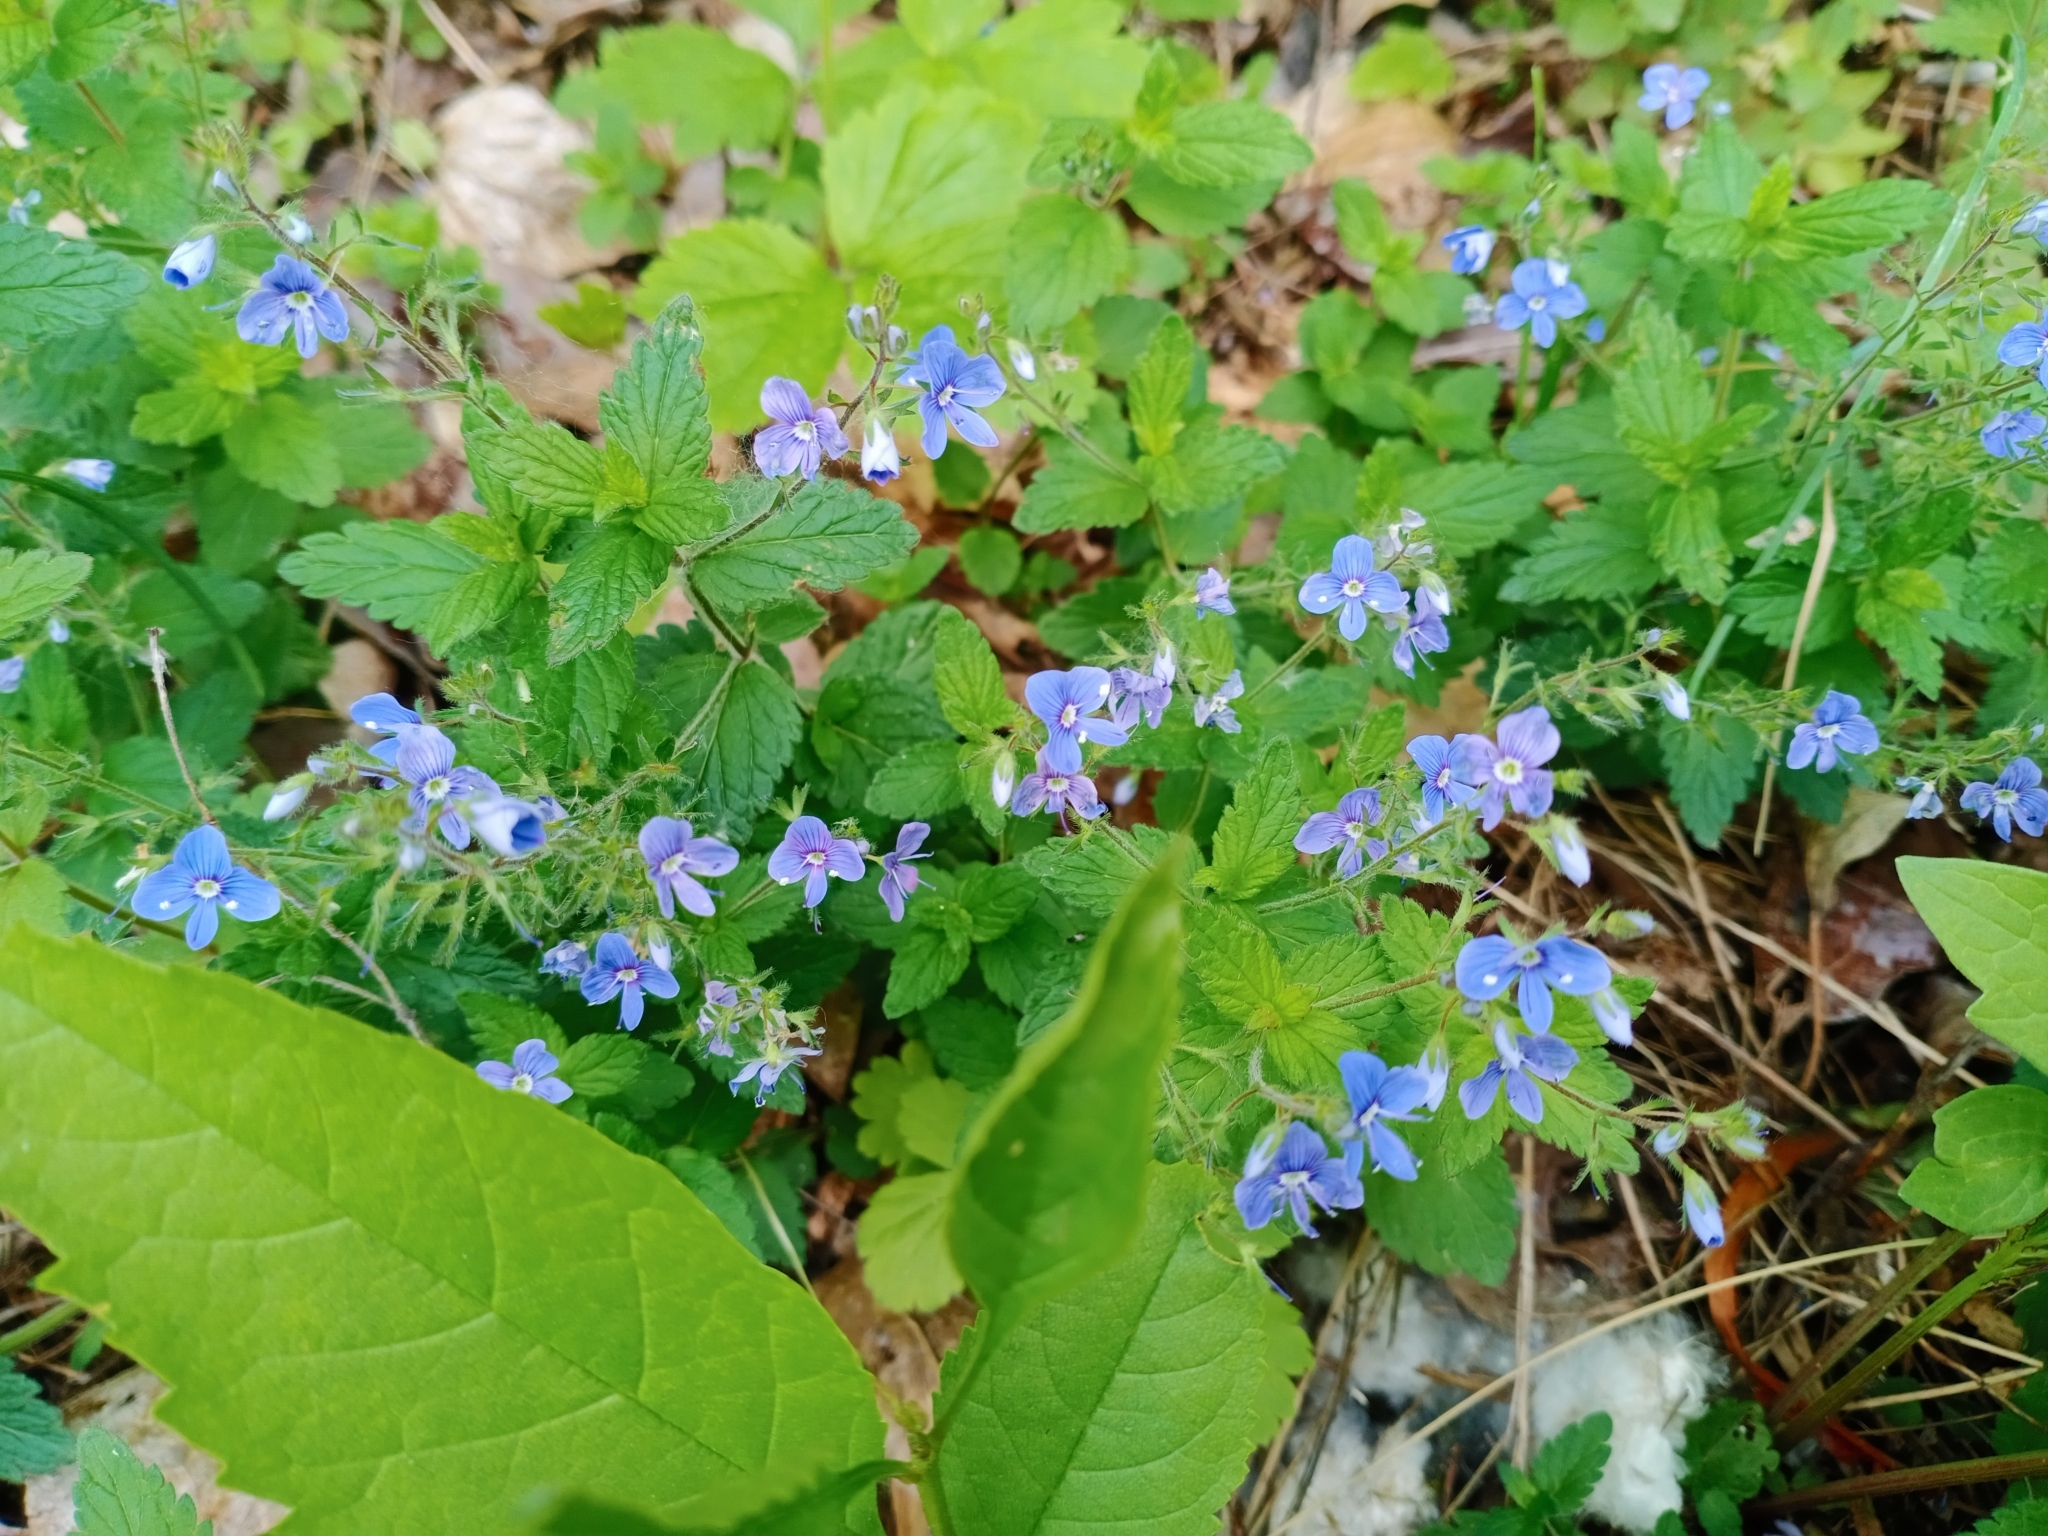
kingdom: Plantae
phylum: Tracheophyta
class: Magnoliopsida
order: Lamiales
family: Plantaginaceae
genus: Veronica
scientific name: Veronica chamaedrys
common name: Germander speedwell
